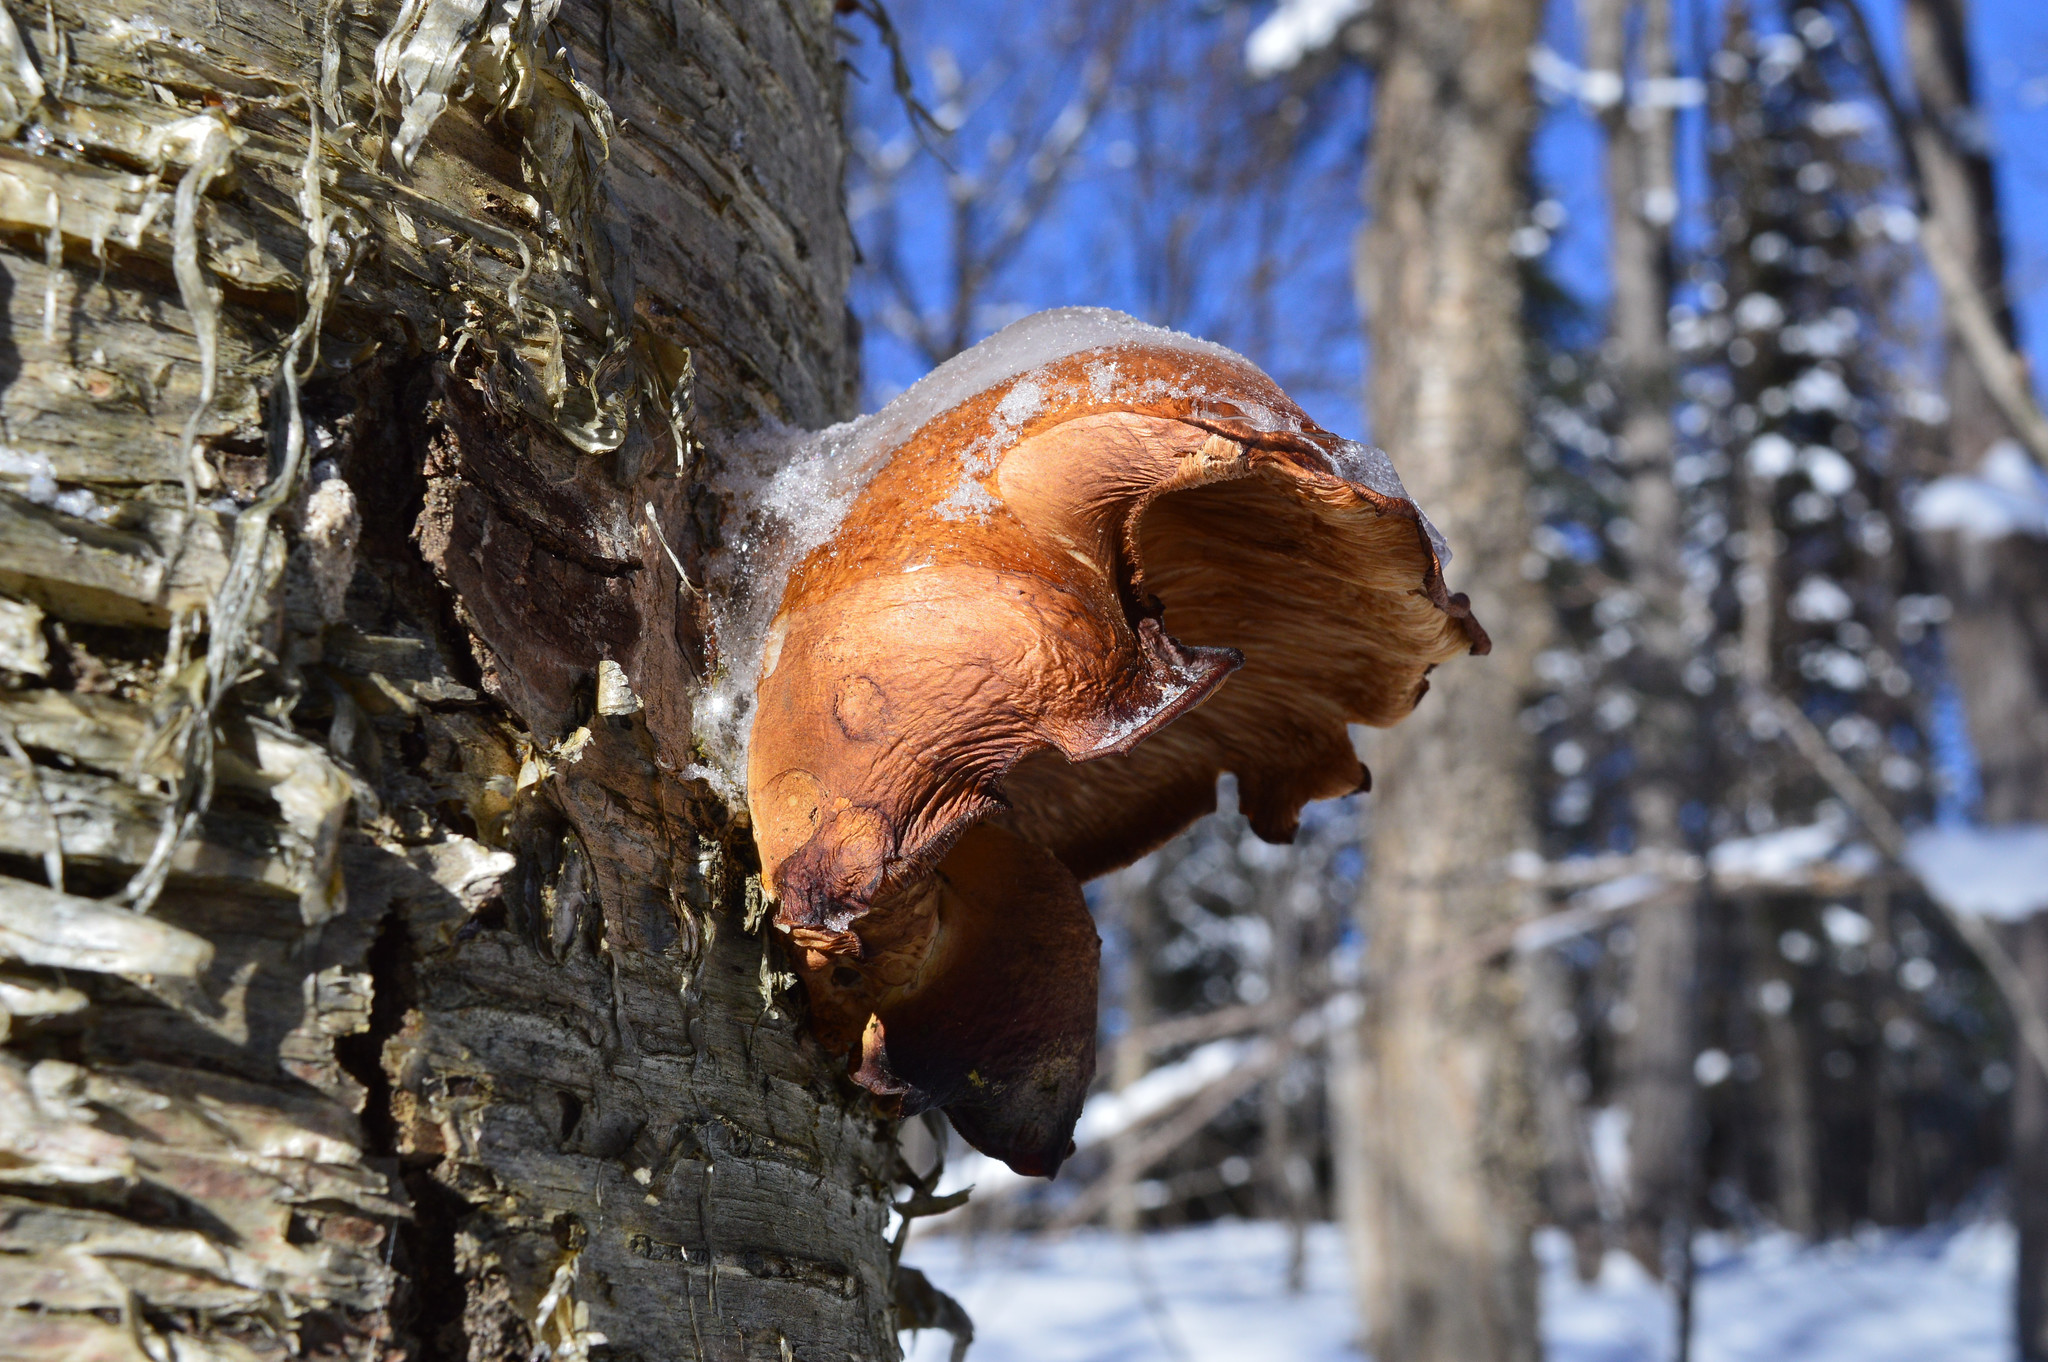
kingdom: Fungi
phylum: Basidiomycota
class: Agaricomycetes
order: Agaricales
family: Sarcomyxaceae
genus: Sarcomyxa
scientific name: Sarcomyxa serotina
